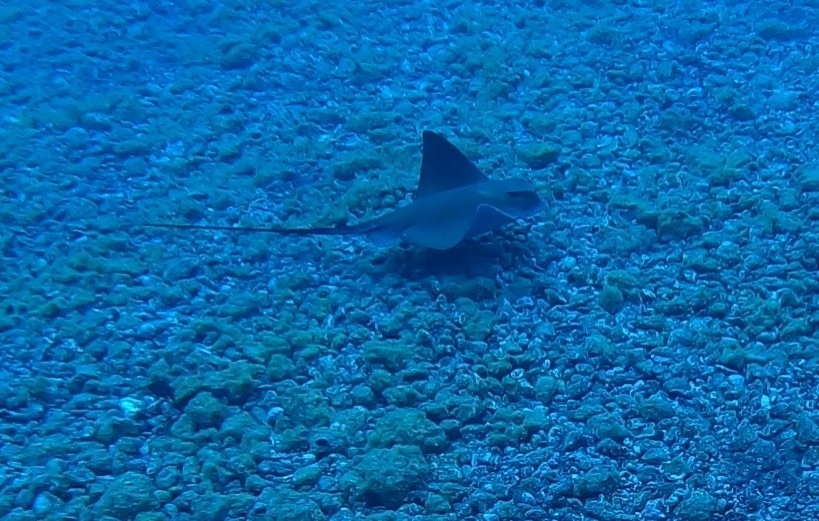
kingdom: Animalia
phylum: Chordata
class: Elasmobranchii
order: Myliobatiformes
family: Myliobatidae
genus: Myliobatis
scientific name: Myliobatis aquila
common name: Eagle ray
